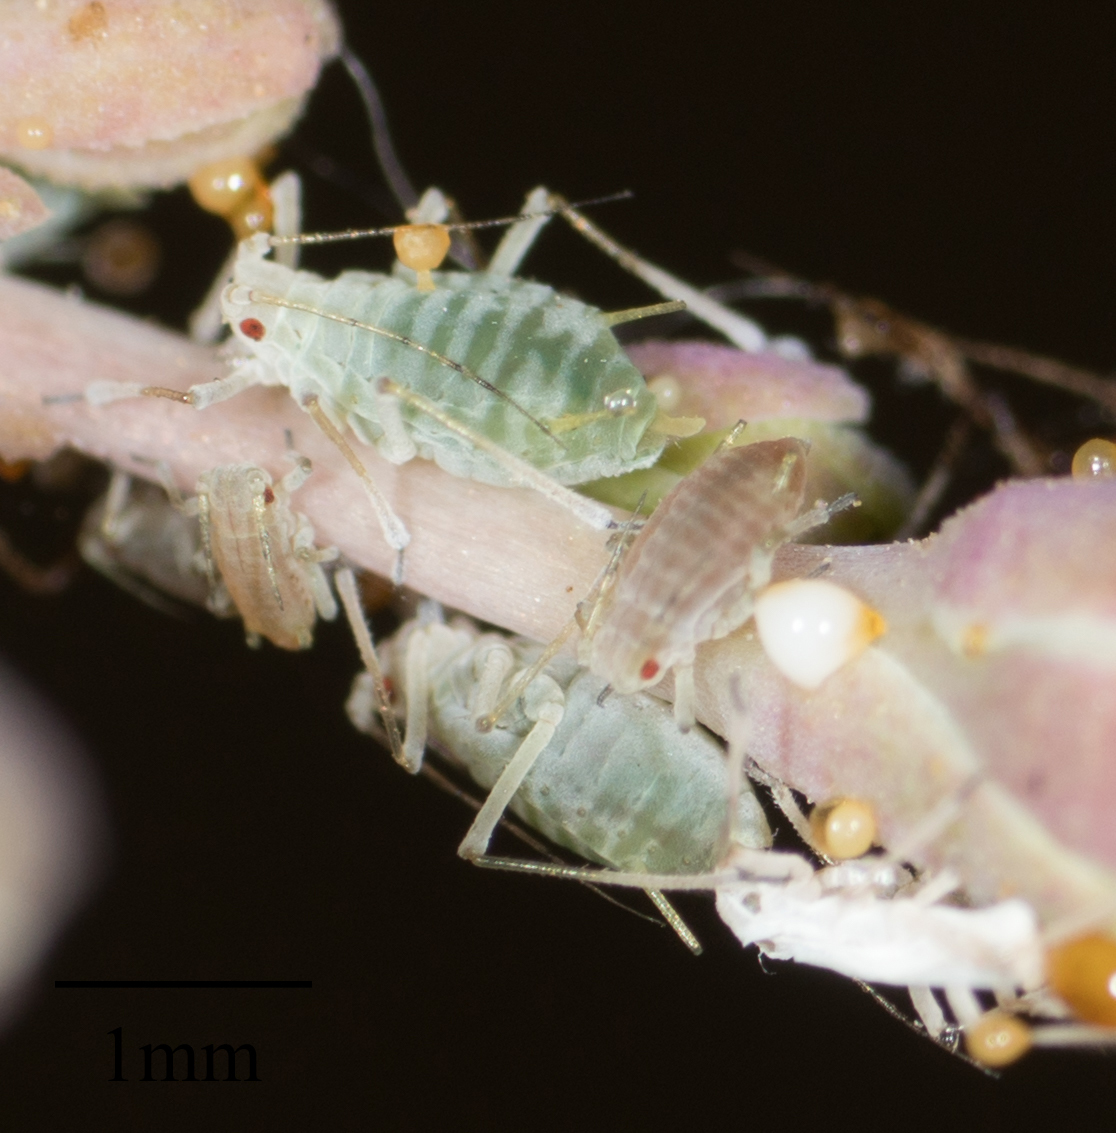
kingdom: Animalia
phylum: Arthropoda
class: Insecta
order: Hemiptera
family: Aphididae
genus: Acyrthosiphon
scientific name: Acyrthosiphon lactucae
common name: Aphid
